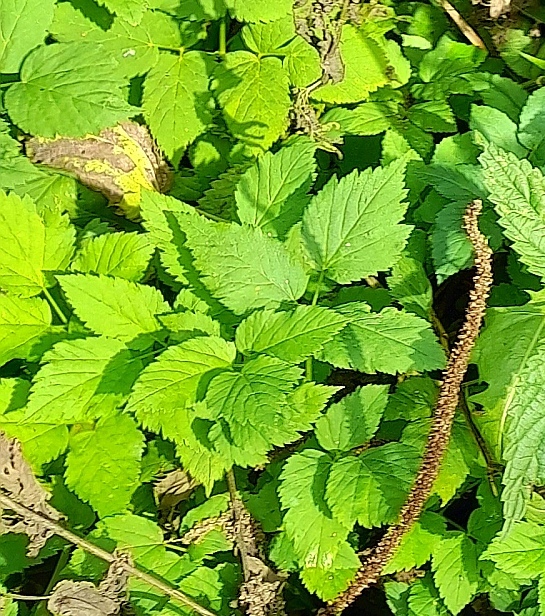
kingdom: Plantae
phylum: Tracheophyta
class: Magnoliopsida
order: Apiales
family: Apiaceae
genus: Aegopodium
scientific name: Aegopodium podagraria
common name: Ground-elder
